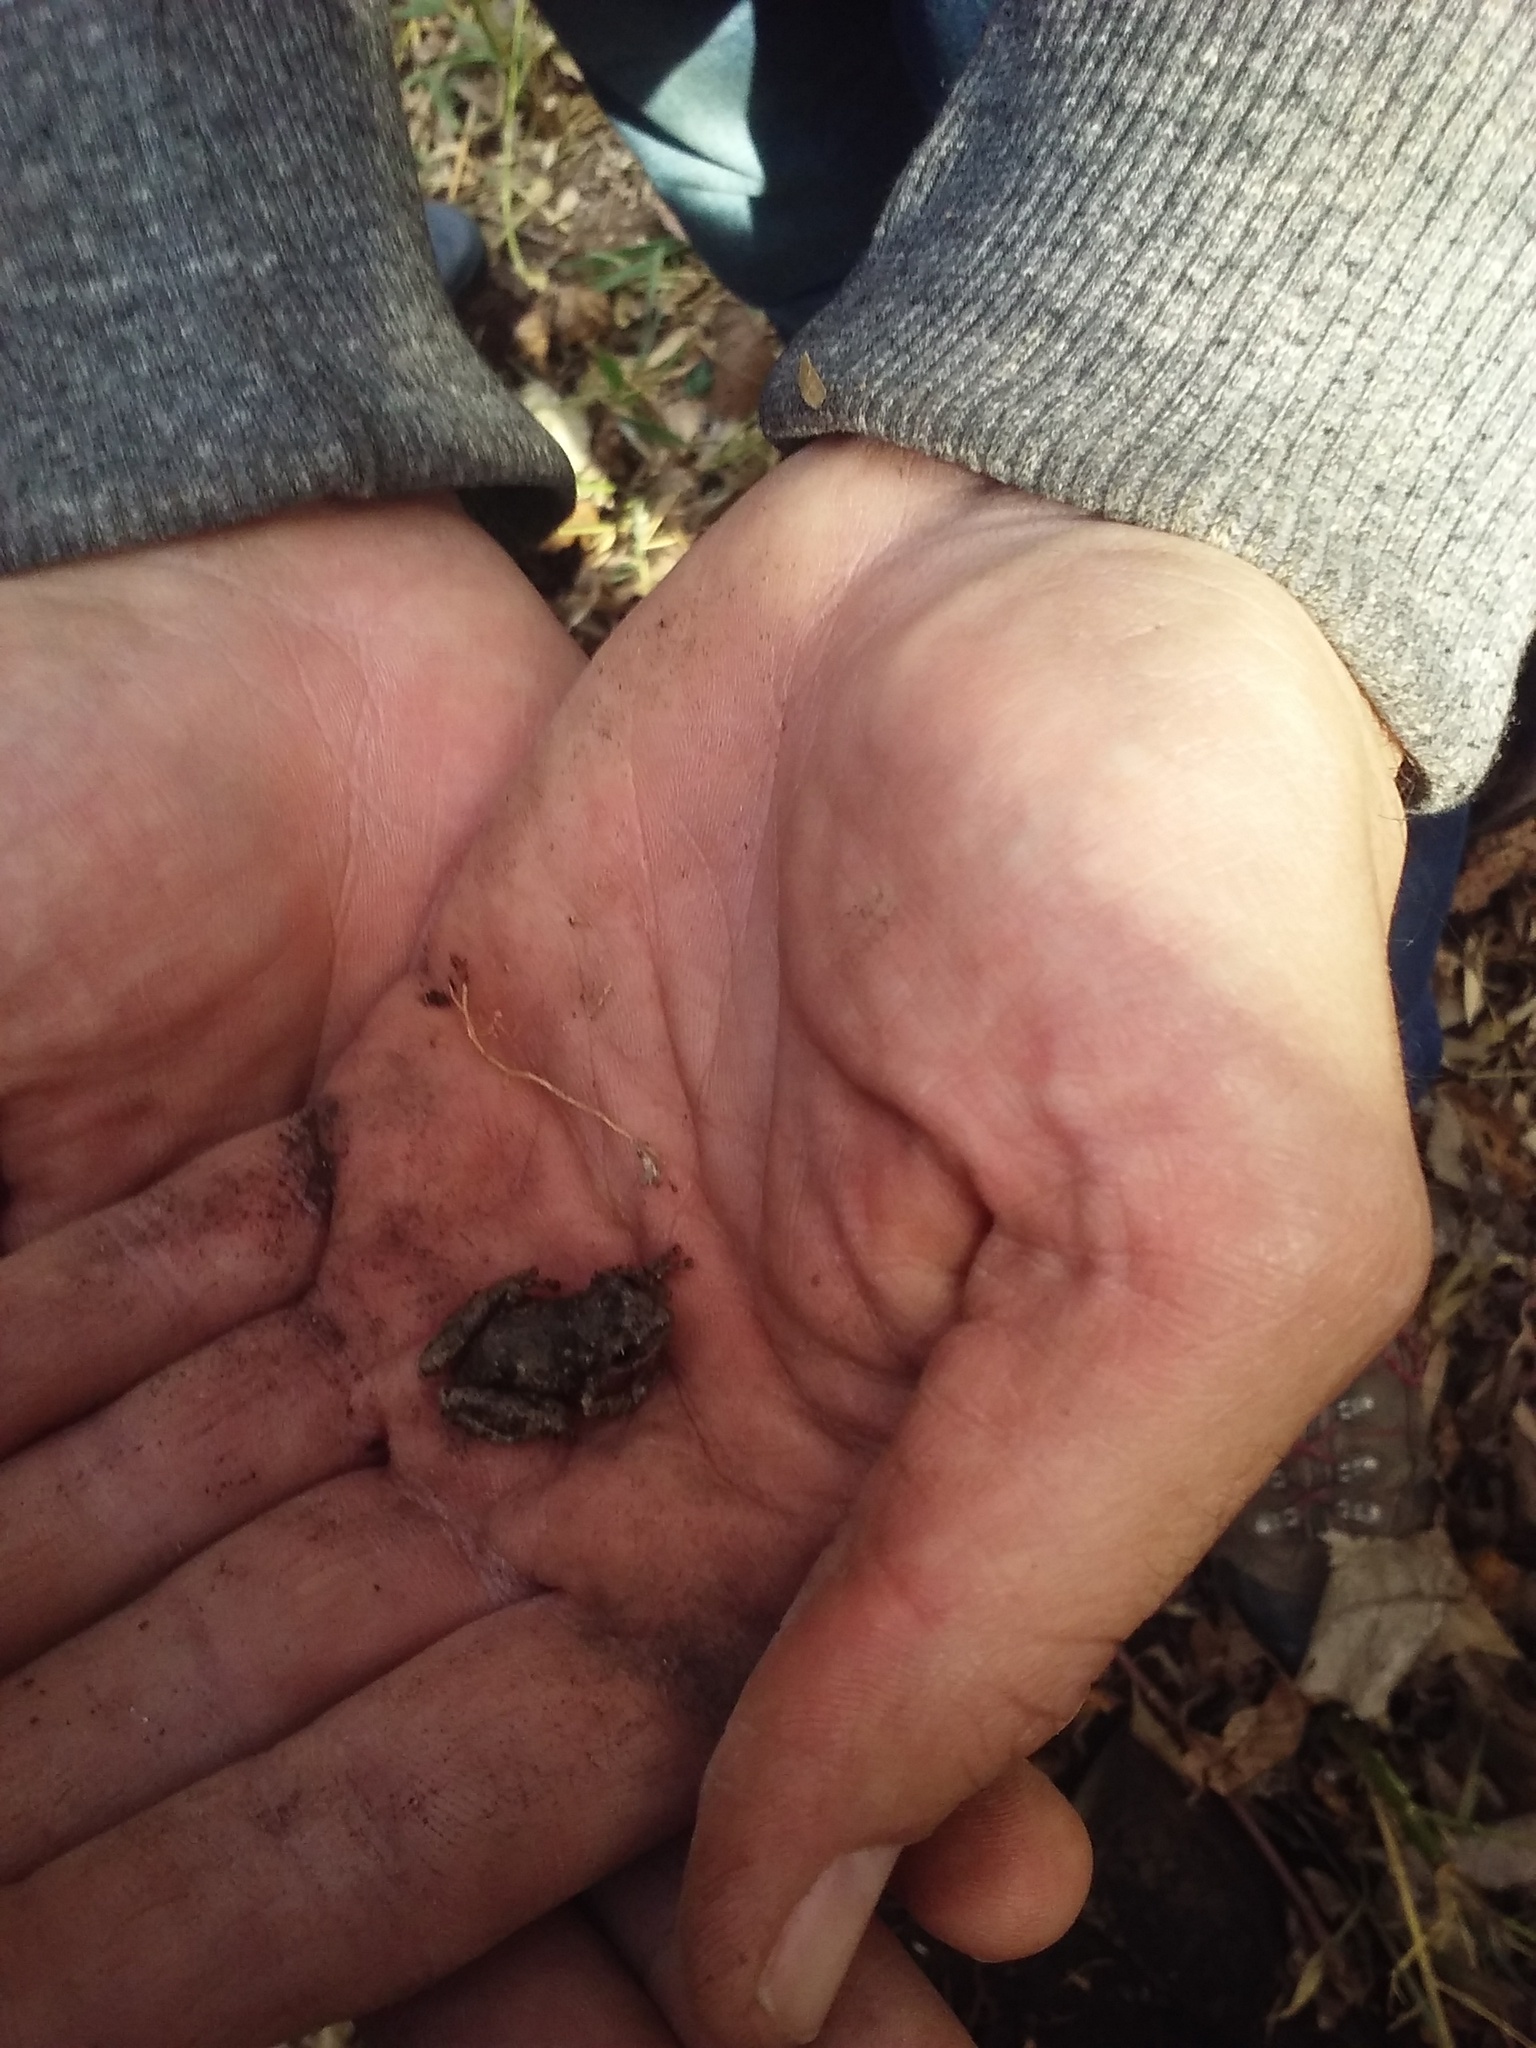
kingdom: Animalia
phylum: Chordata
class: Amphibia
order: Anura
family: Hylidae
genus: Scinax
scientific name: Scinax granulatus
